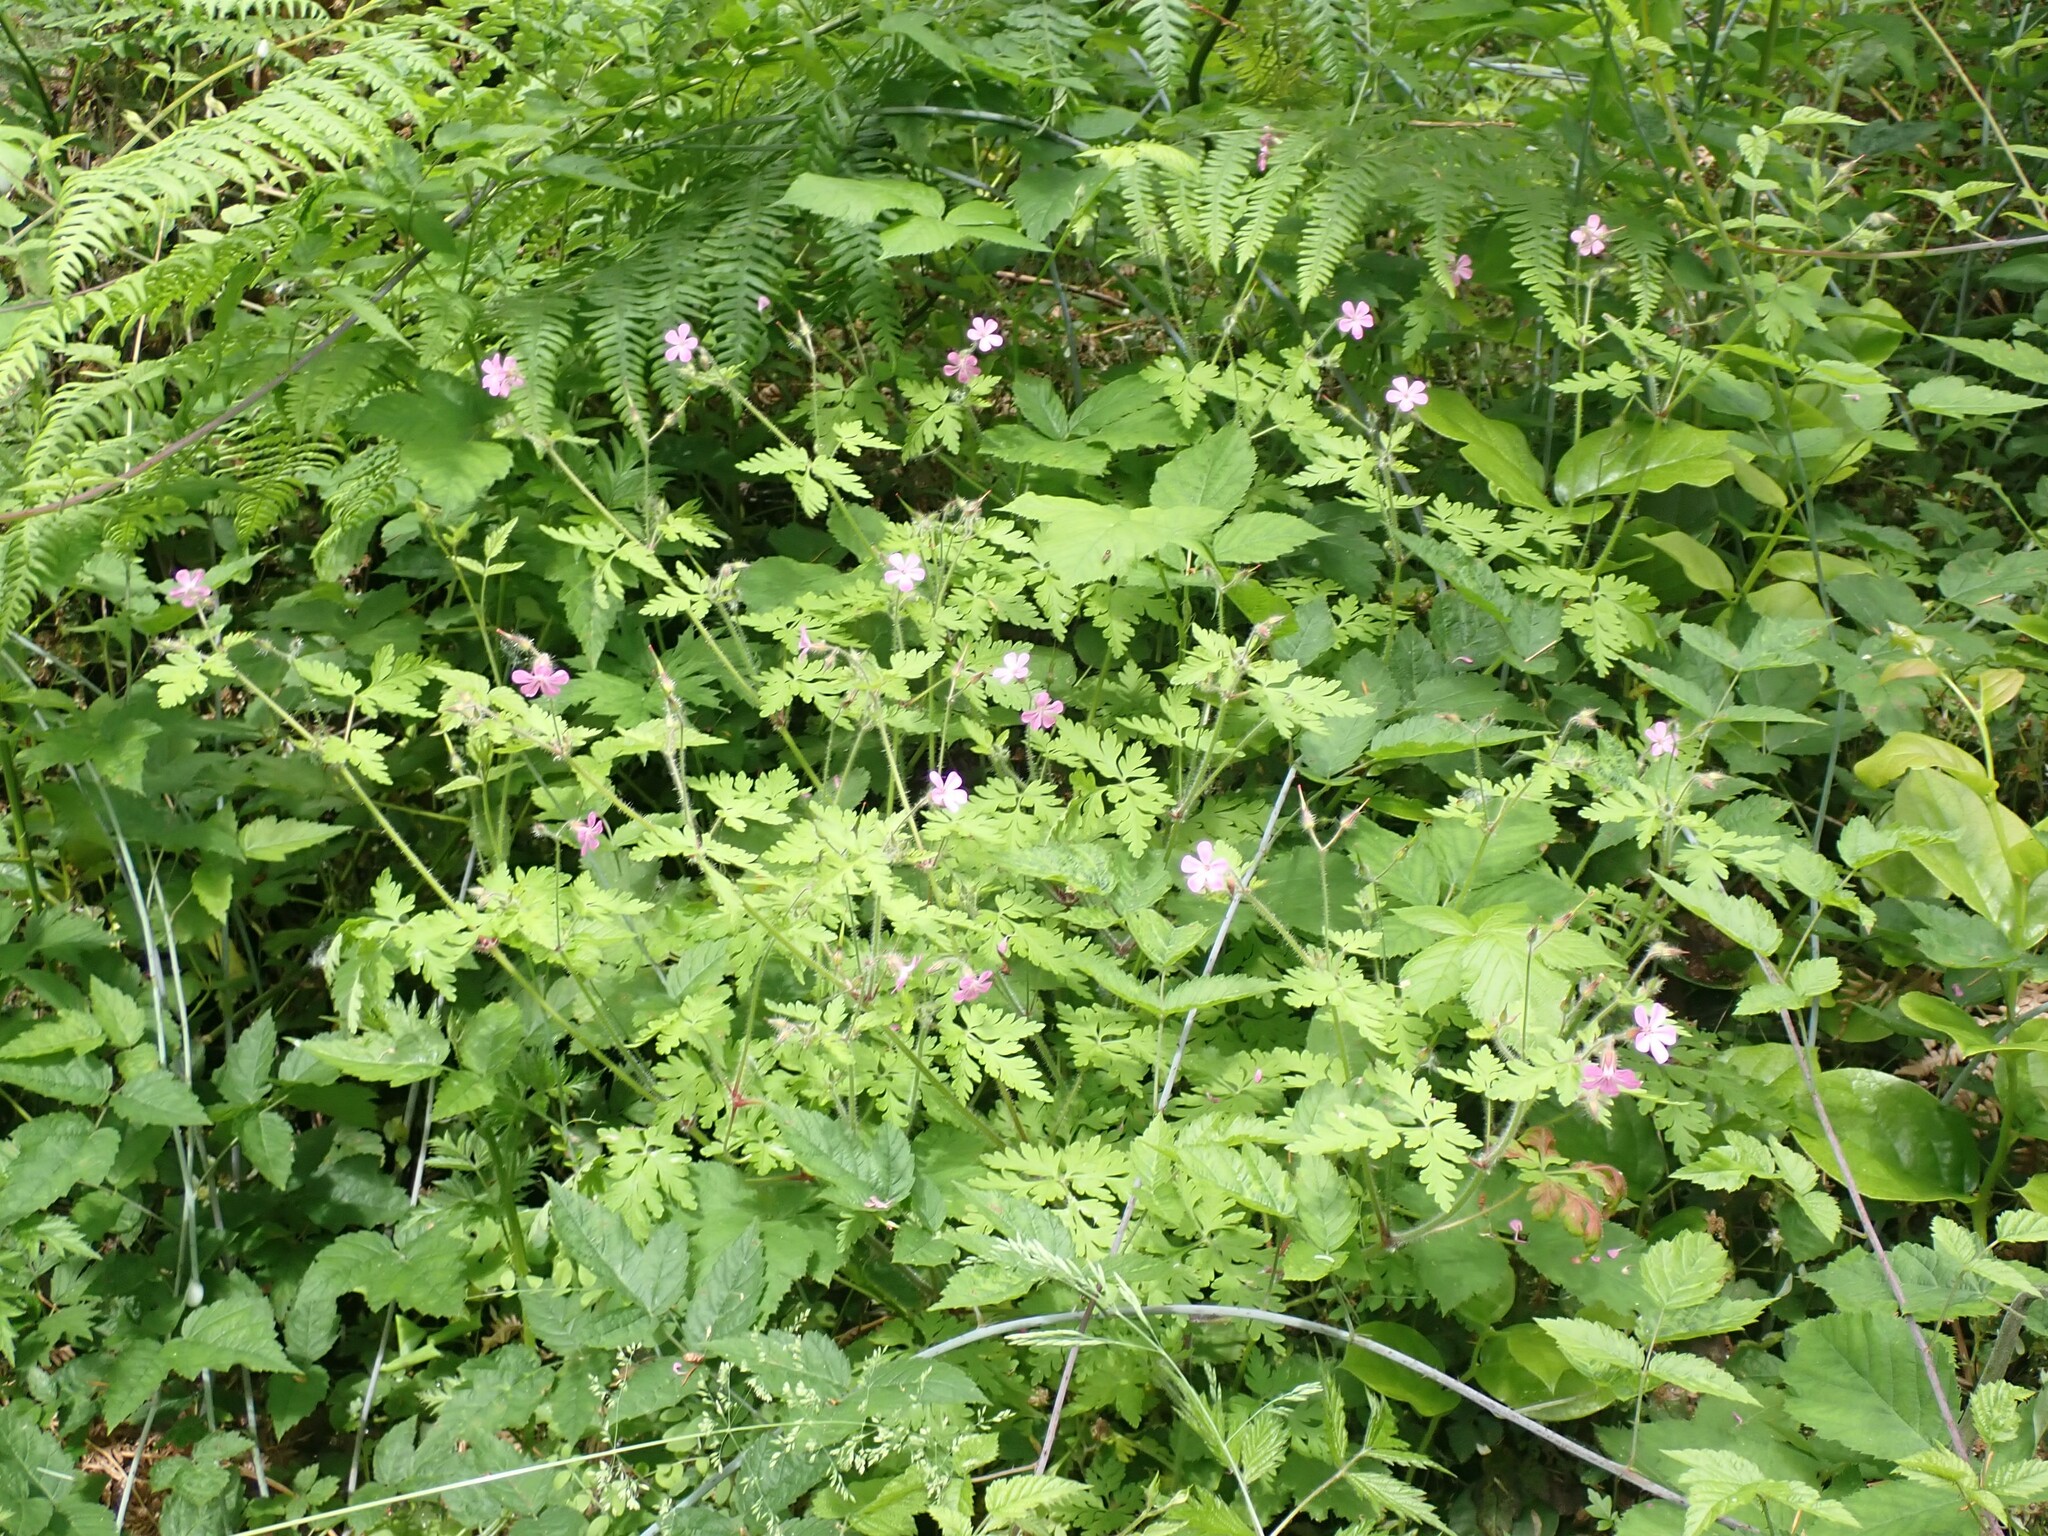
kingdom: Plantae
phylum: Tracheophyta
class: Magnoliopsida
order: Geraniales
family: Geraniaceae
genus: Geranium
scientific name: Geranium robertianum
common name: Herb-robert
